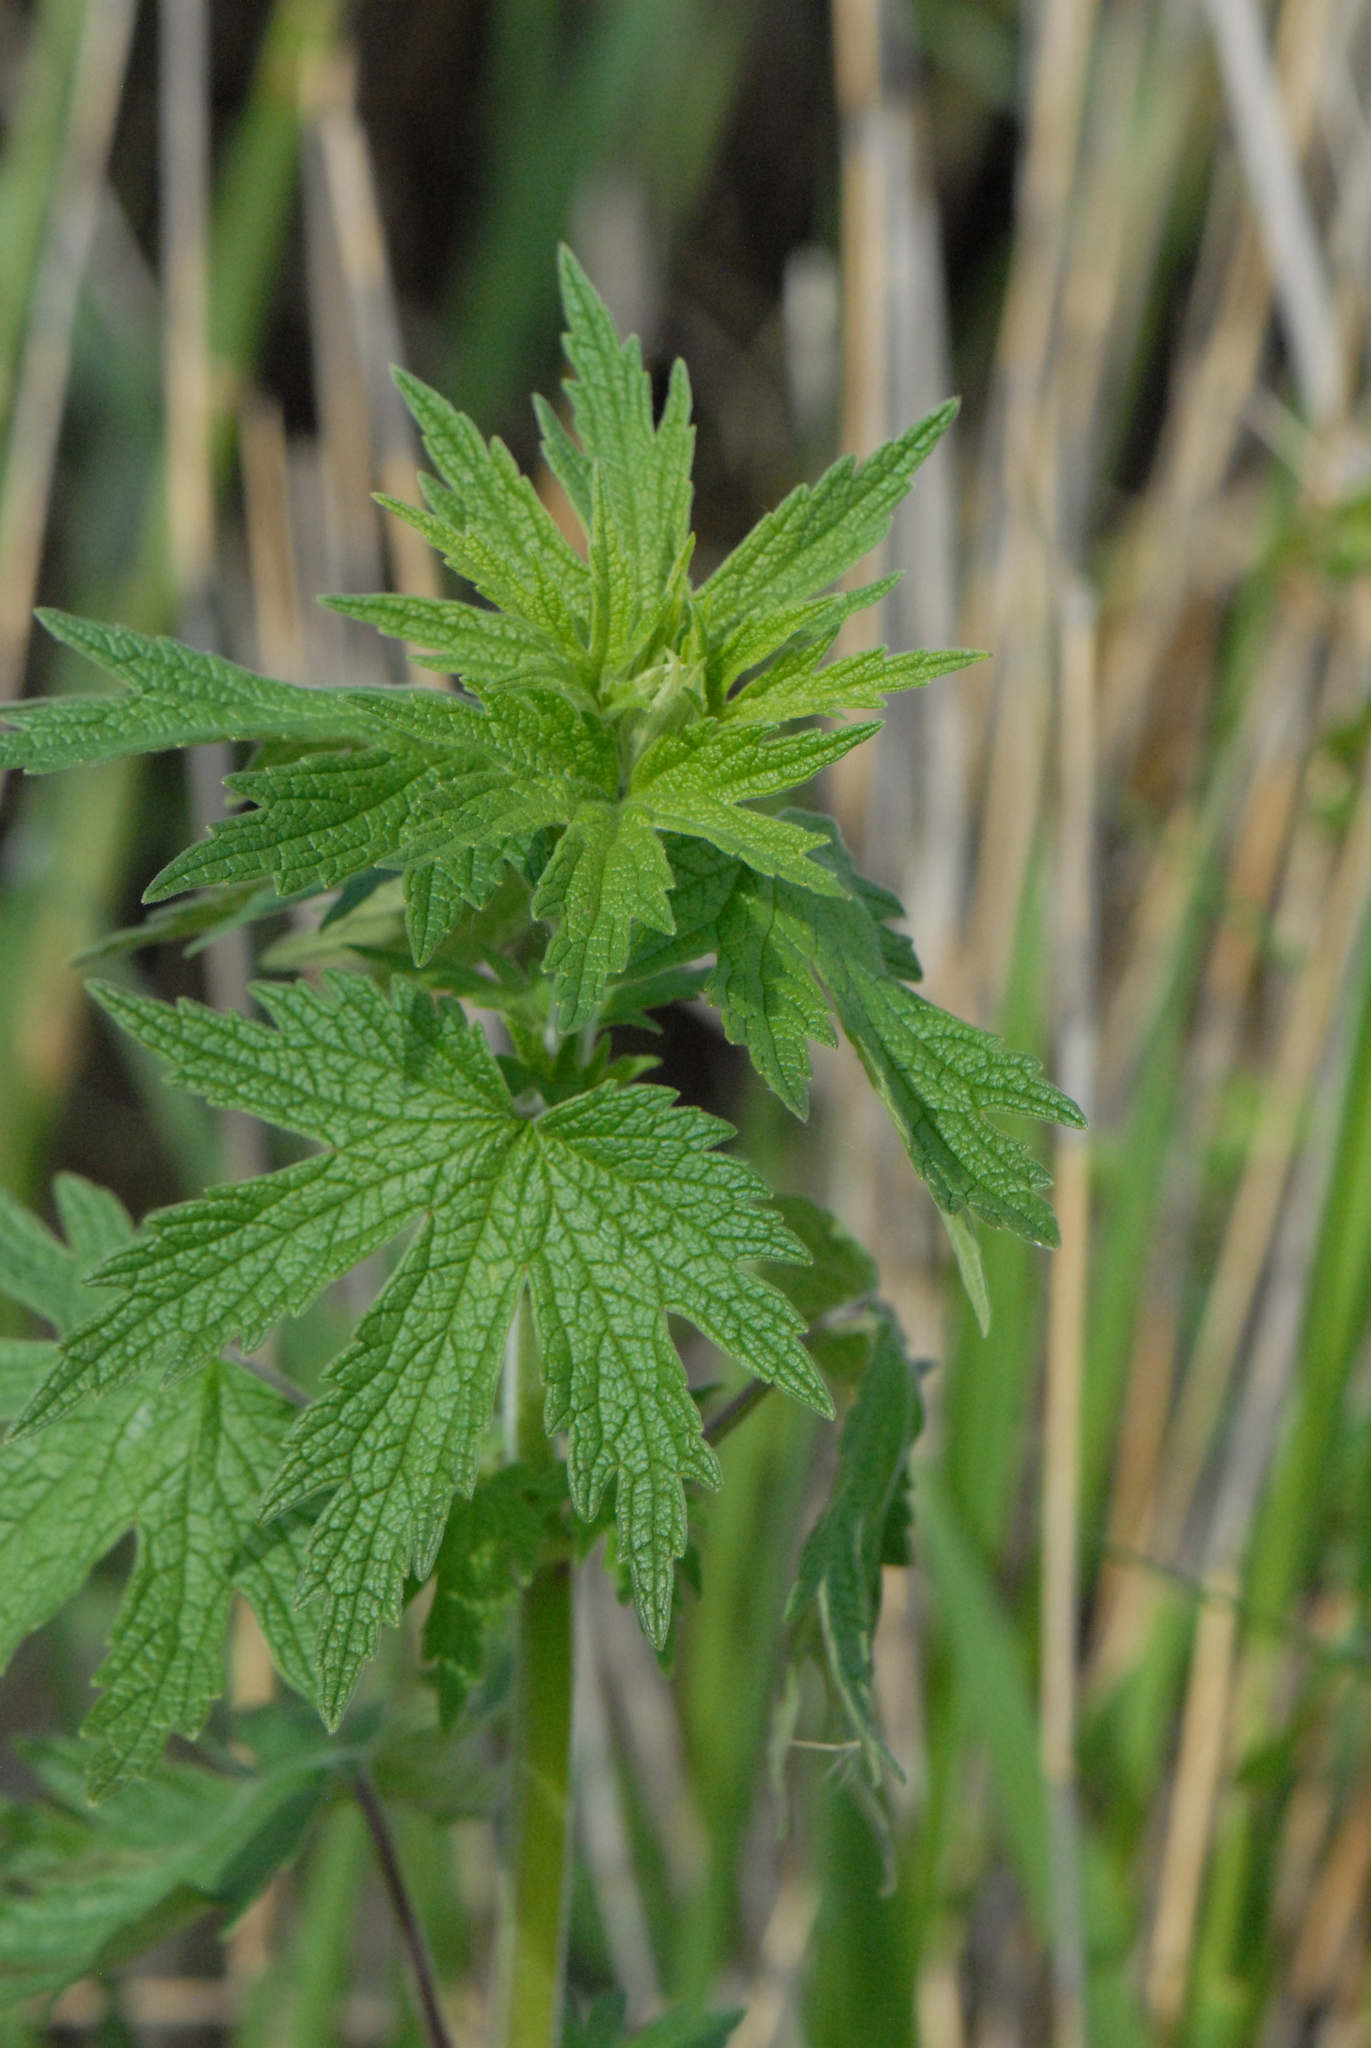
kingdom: Plantae
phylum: Tracheophyta
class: Magnoliopsida
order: Lamiales
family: Lamiaceae
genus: Leonurus
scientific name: Leonurus glaucescens
